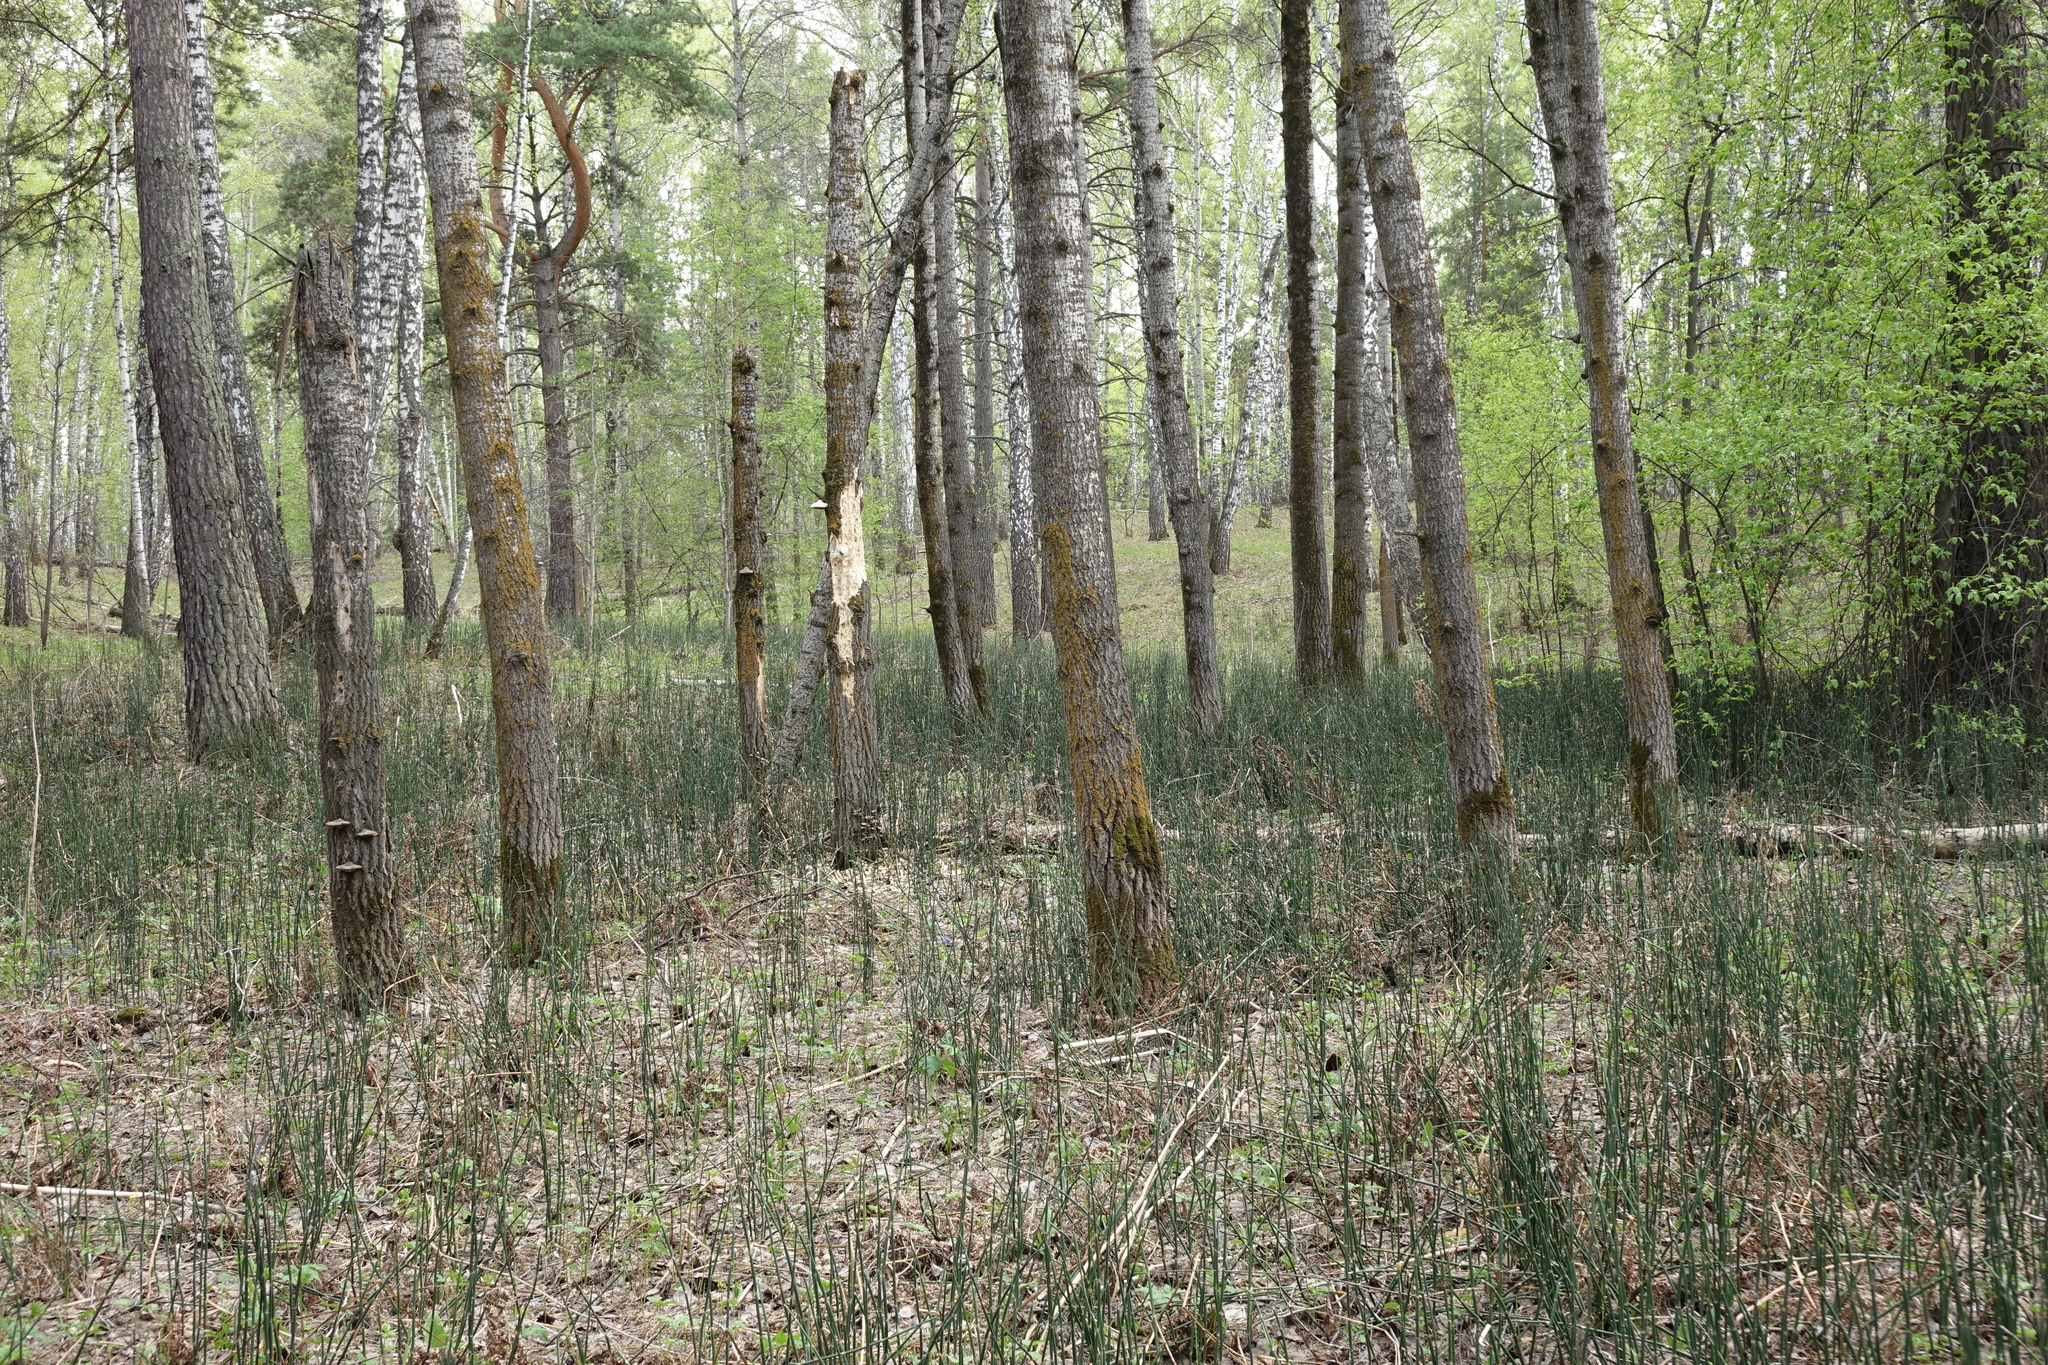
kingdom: Plantae
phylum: Tracheophyta
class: Magnoliopsida
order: Malpighiales
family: Salicaceae
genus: Populus
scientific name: Populus tremula
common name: European aspen
